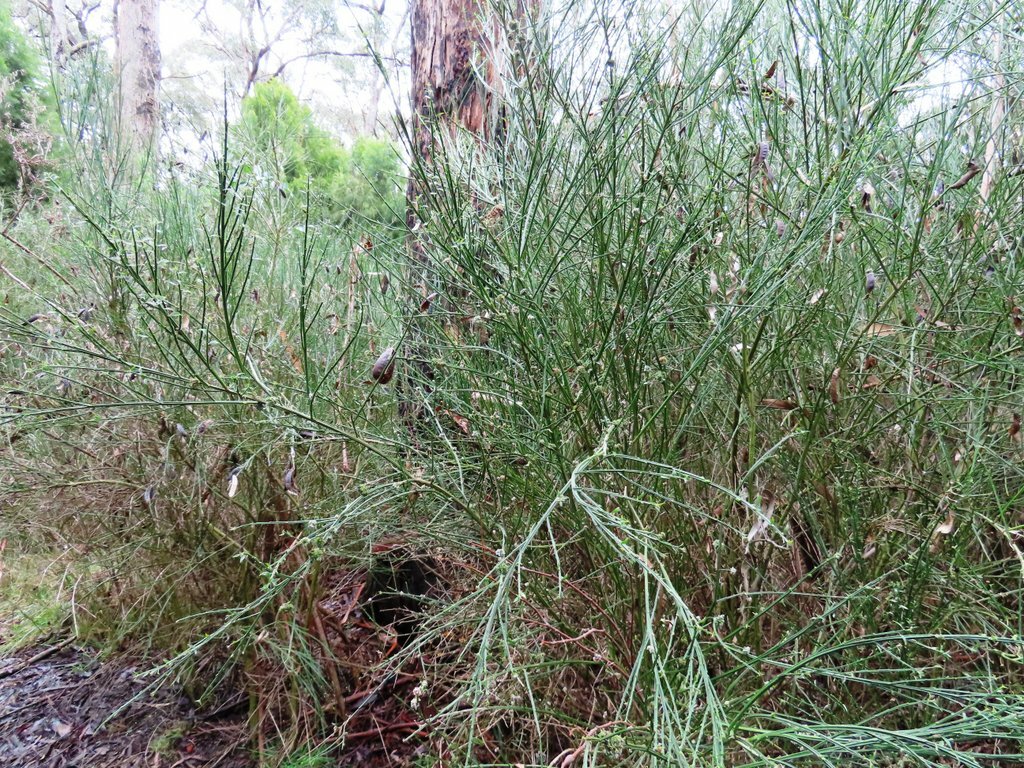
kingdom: Plantae
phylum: Tracheophyta
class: Magnoliopsida
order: Fabales
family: Fabaceae
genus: Cytisus
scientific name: Cytisus scoparius
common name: Scotch broom
